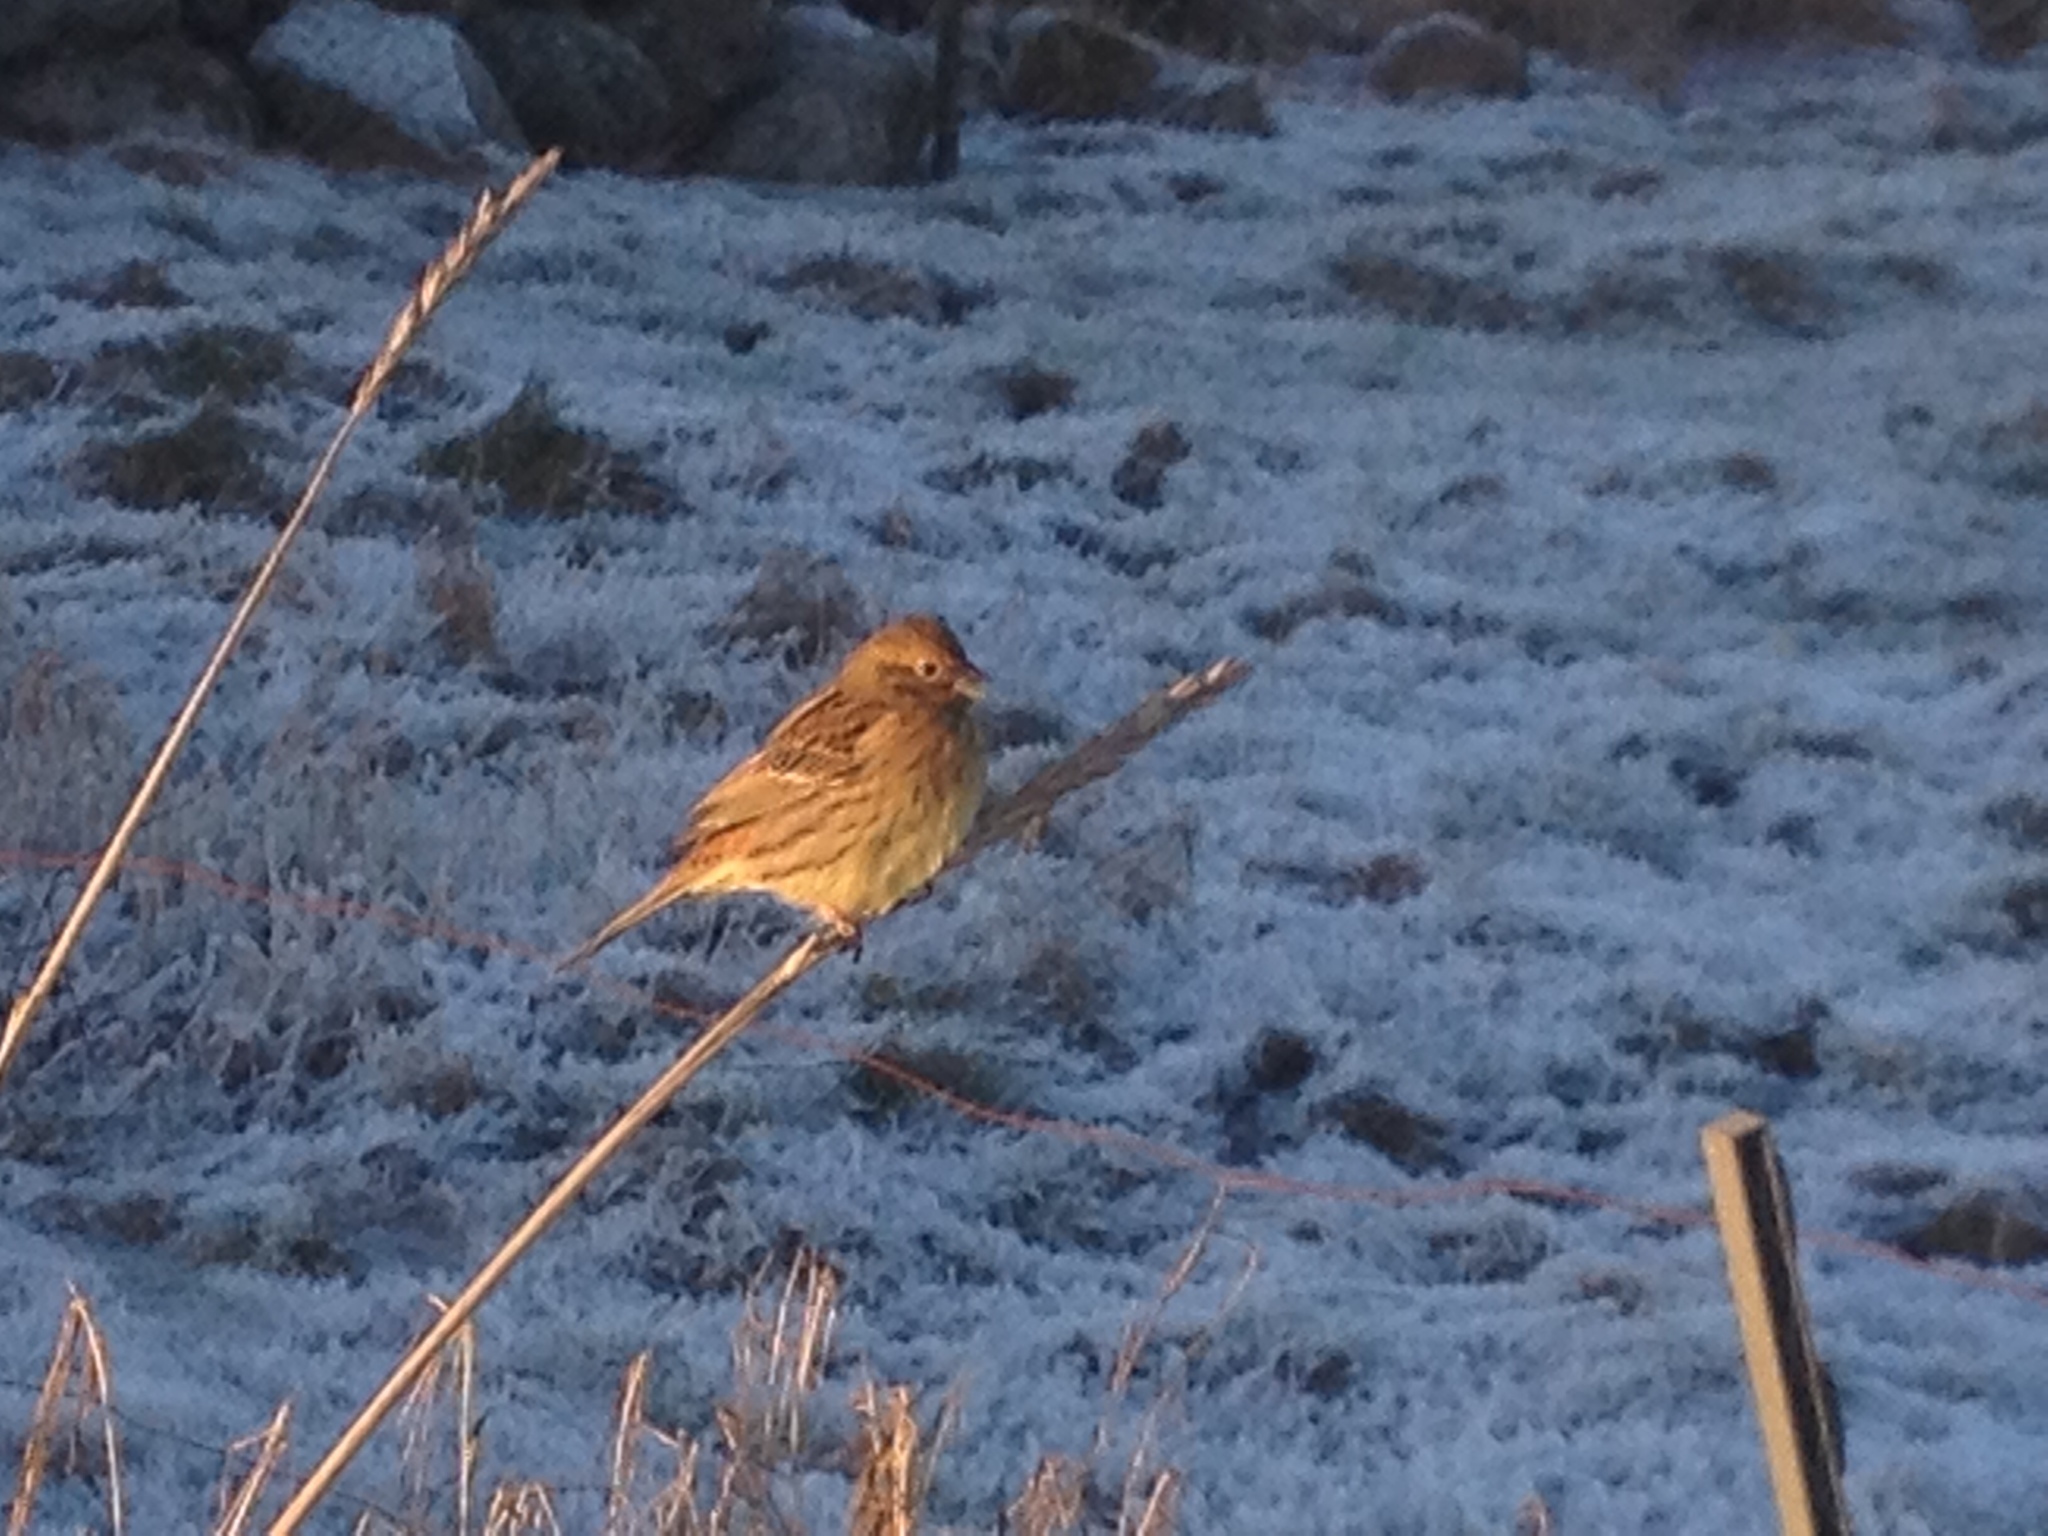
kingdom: Animalia
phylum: Chordata
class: Aves
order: Passeriformes
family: Emberizidae
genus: Emberiza
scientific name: Emberiza citrinella
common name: Yellowhammer
